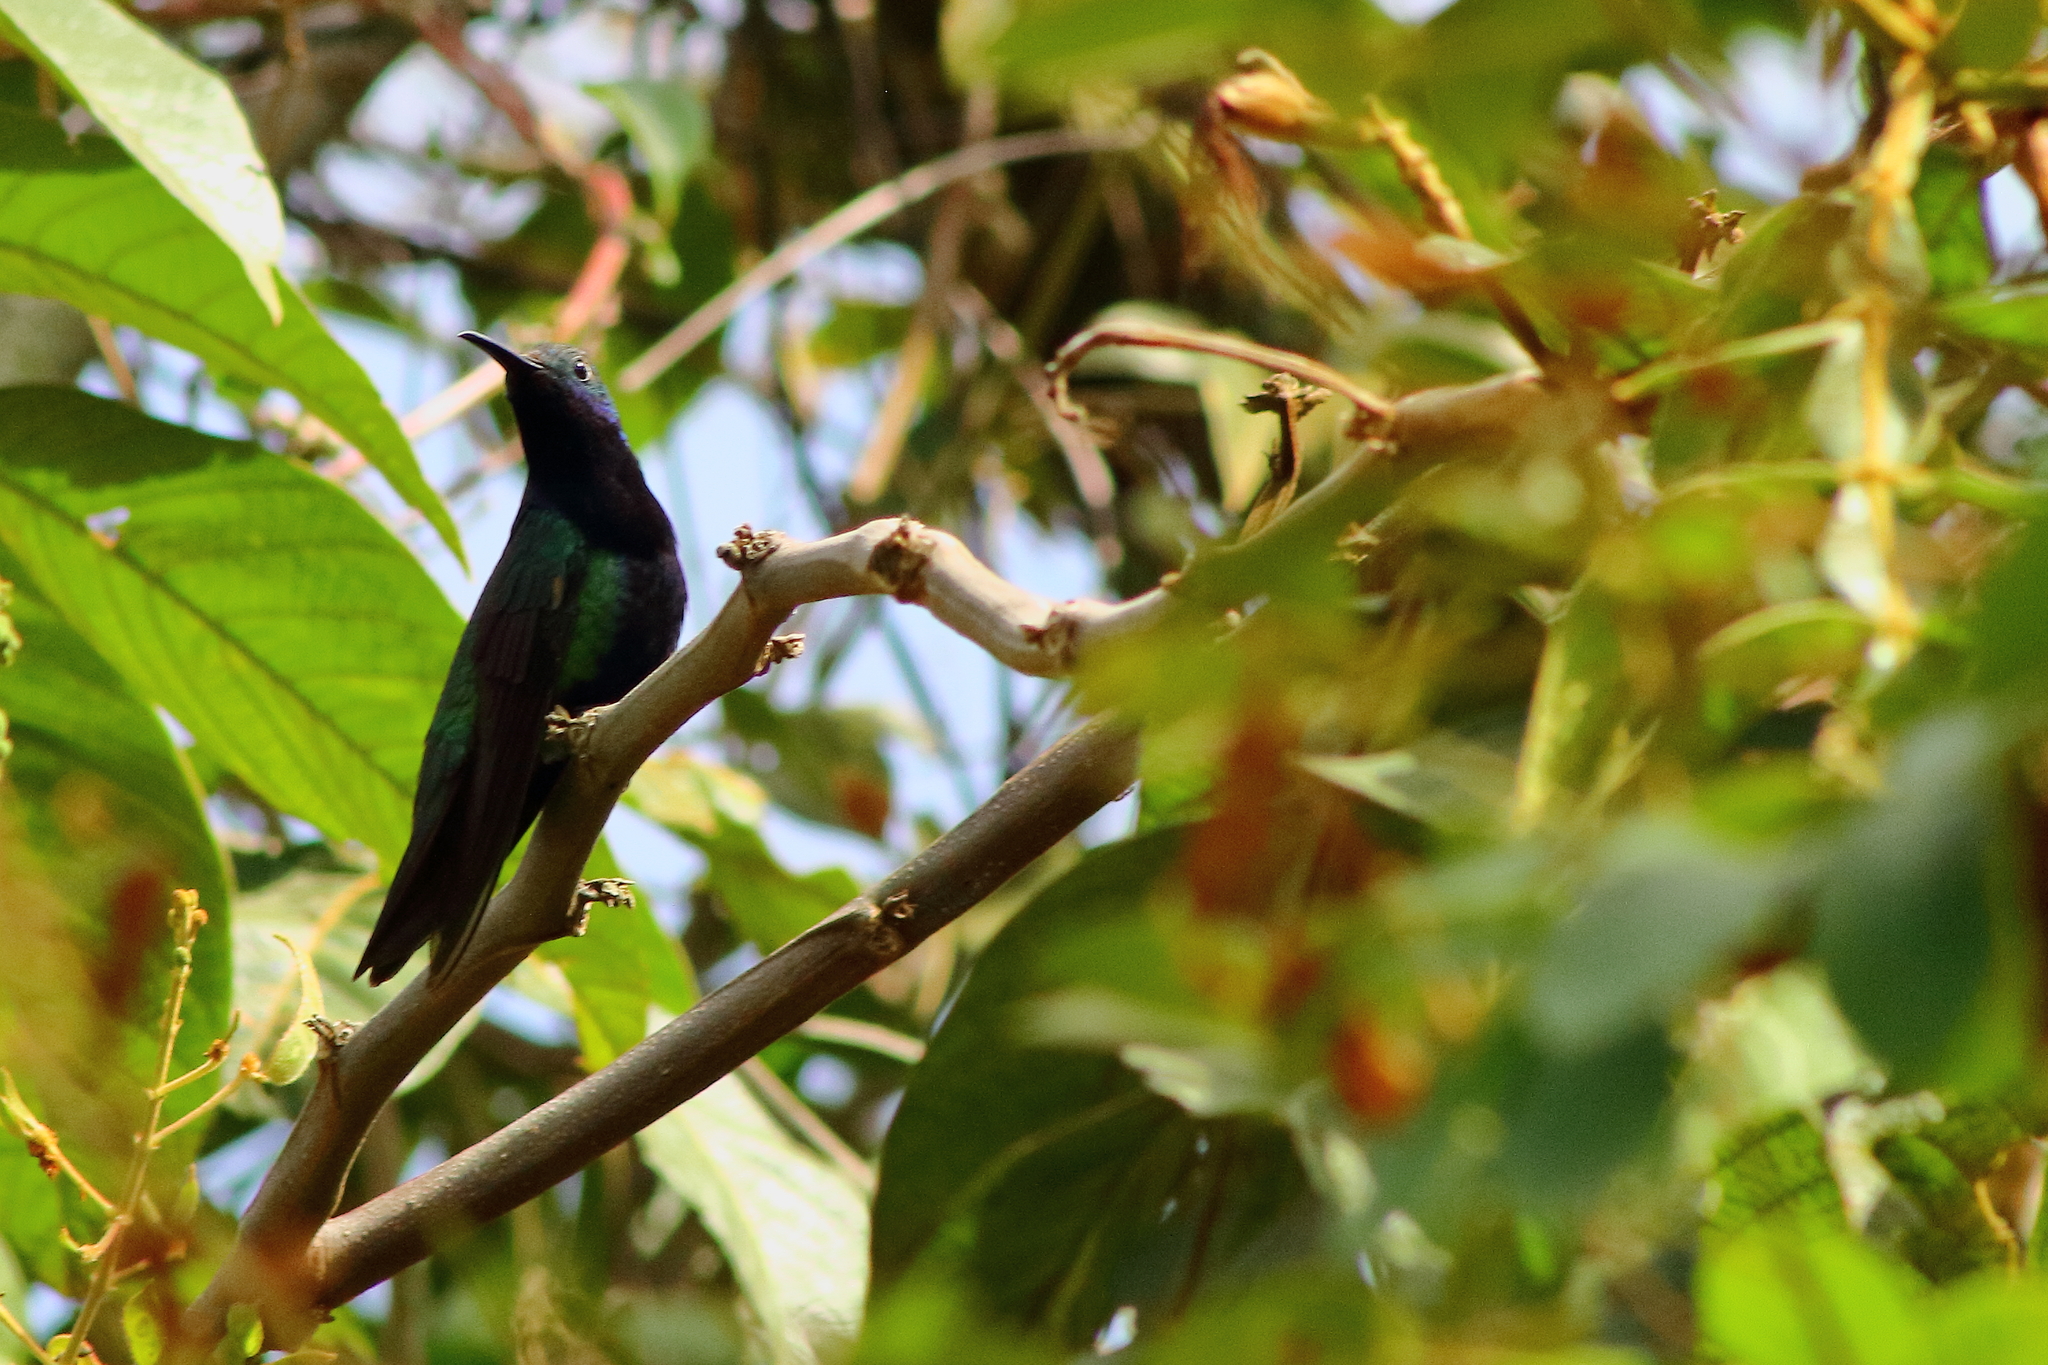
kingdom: Animalia
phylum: Chordata
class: Aves
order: Apodiformes
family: Trochilidae
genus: Anthracothorax
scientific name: Anthracothorax nigricollis
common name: Black-throated mango
